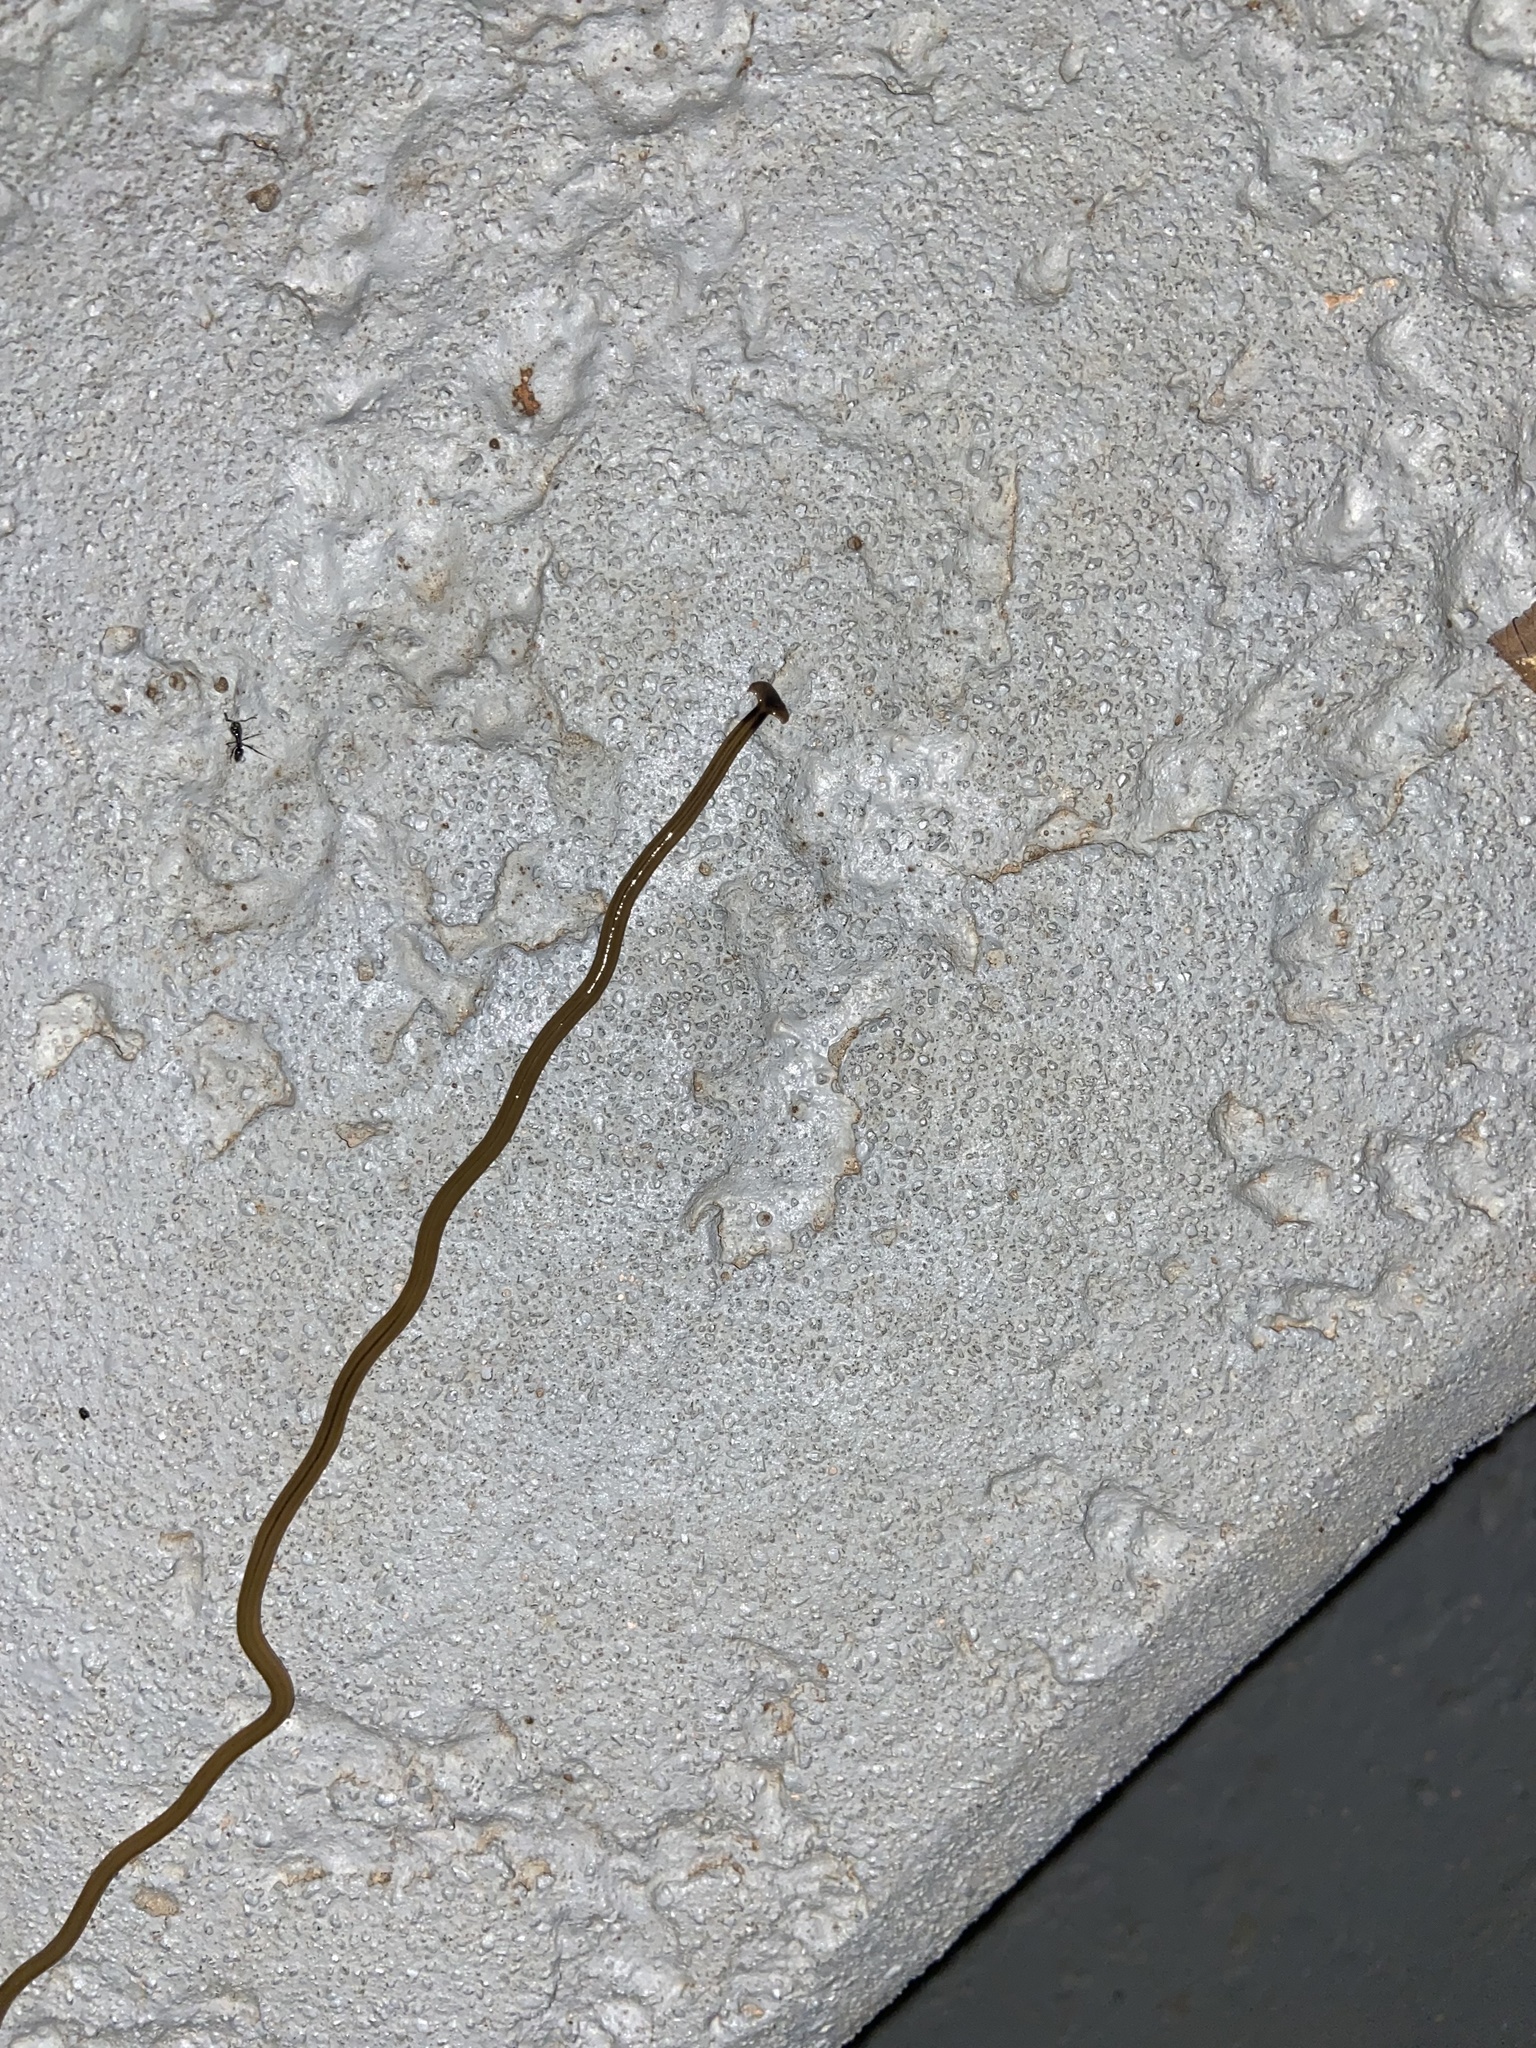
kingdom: Animalia
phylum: Platyhelminthes
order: Tricladida
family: Geoplanidae
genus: Bipalium
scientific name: Bipalium kewense
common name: Hammerhead flatworm
